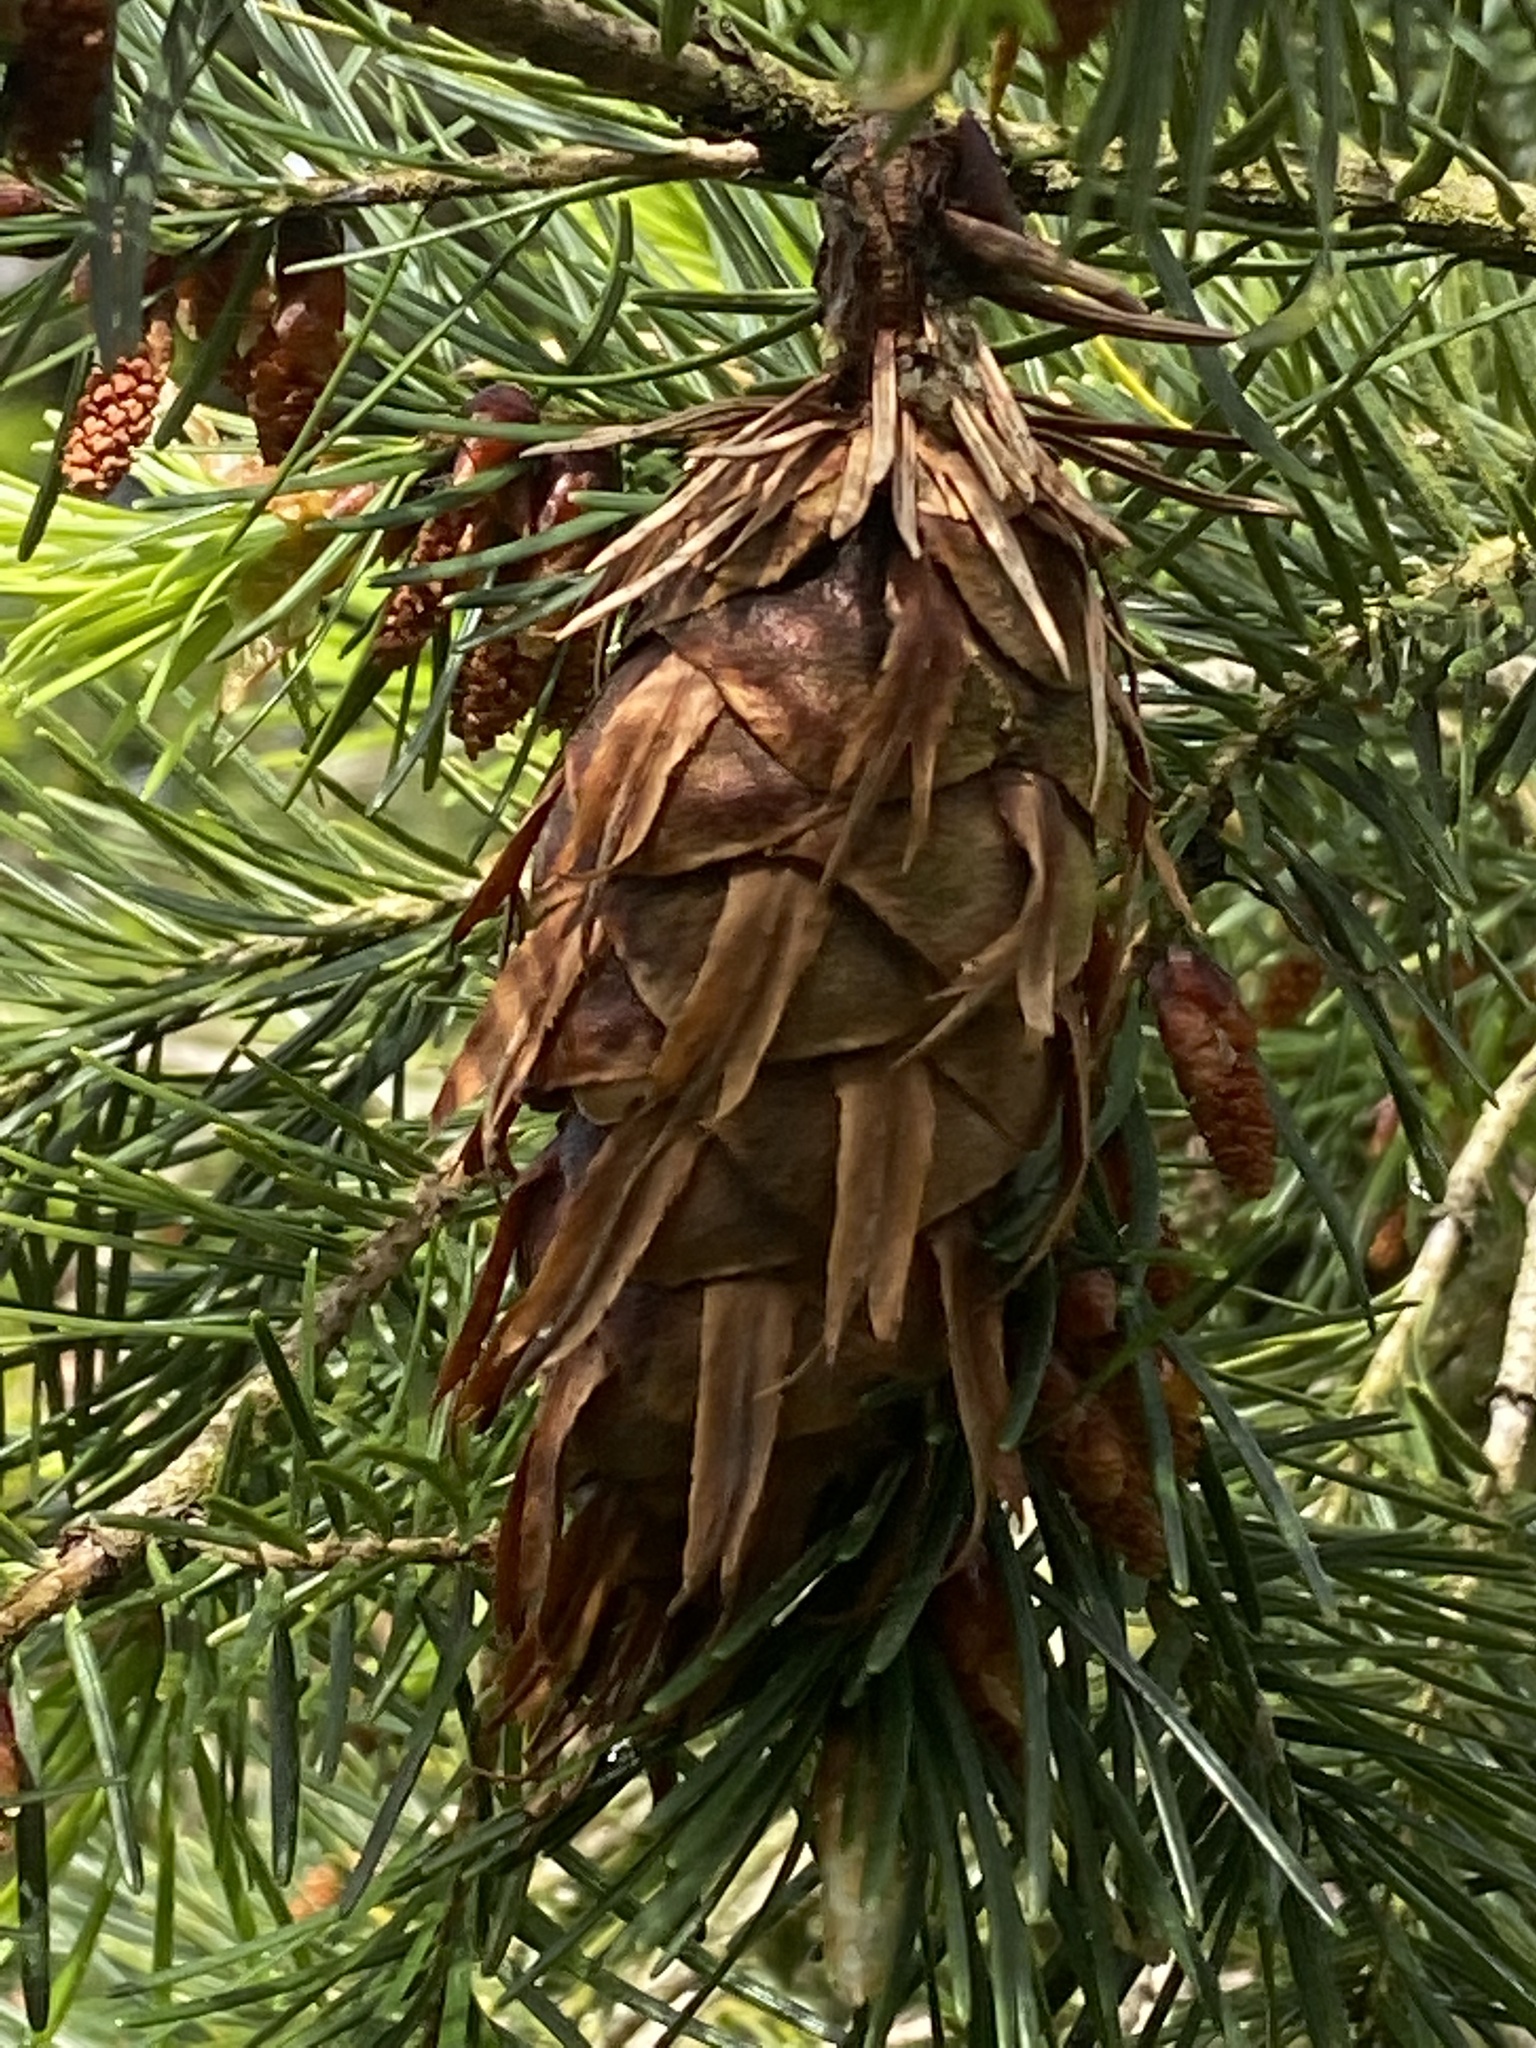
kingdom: Plantae
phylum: Tracheophyta
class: Pinopsida
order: Pinales
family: Pinaceae
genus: Pseudotsuga
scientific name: Pseudotsuga menziesii
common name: Douglas fir
